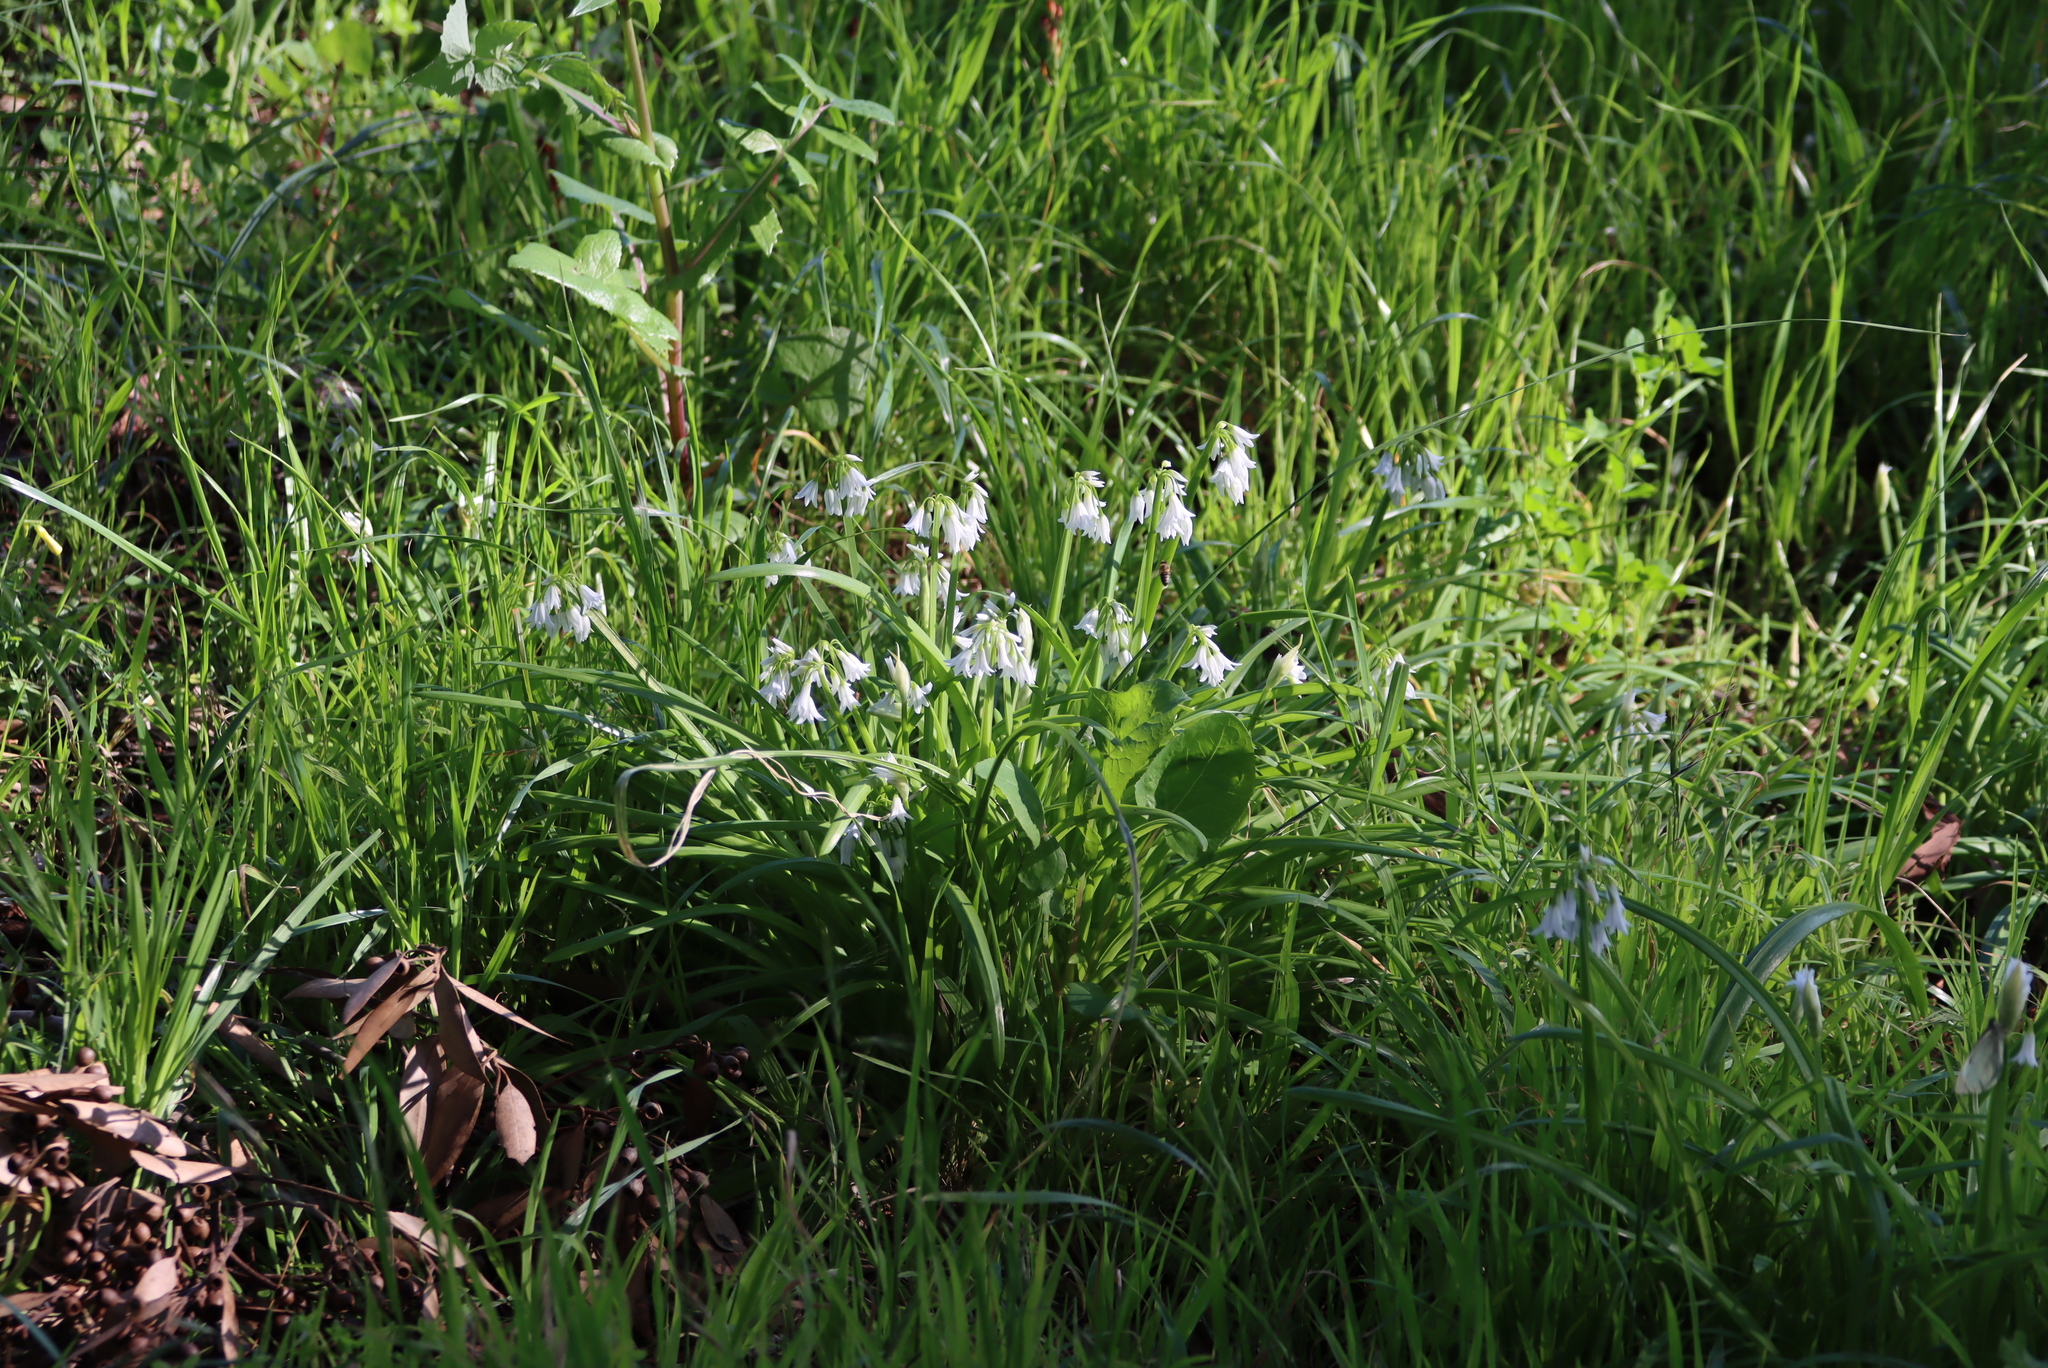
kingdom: Plantae
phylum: Tracheophyta
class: Liliopsida
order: Asparagales
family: Amaryllidaceae
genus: Allium
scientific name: Allium triquetrum
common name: Three-cornered garlic
